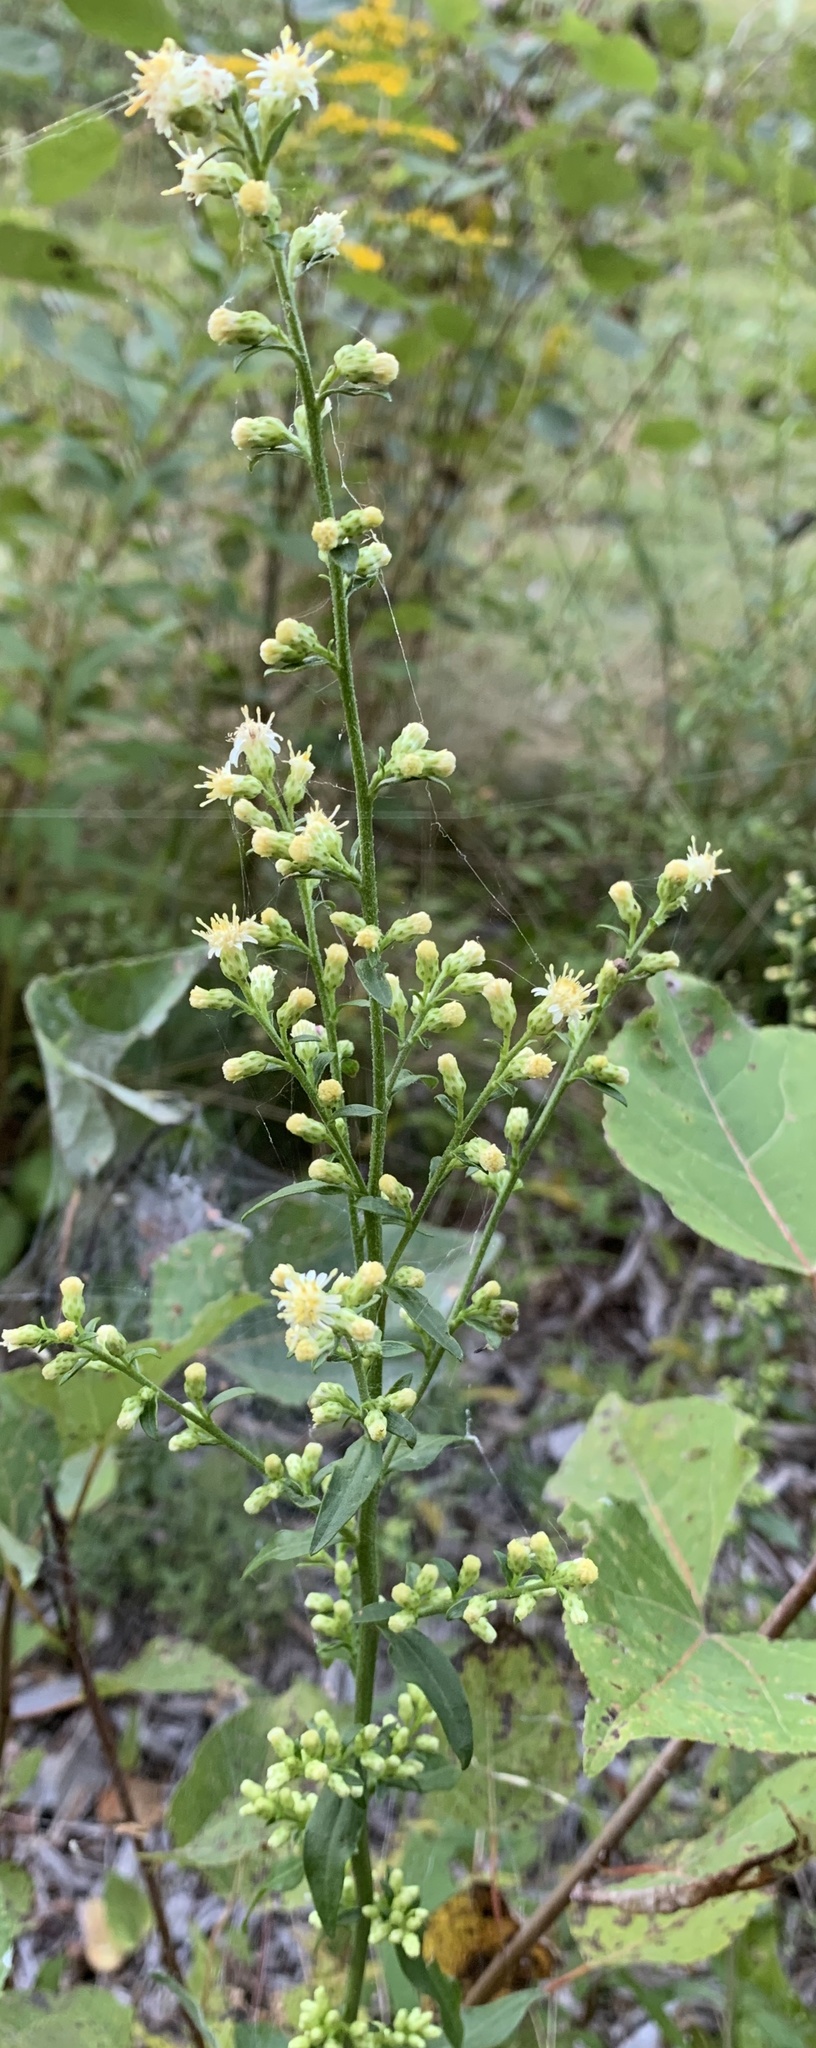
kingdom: Plantae
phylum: Tracheophyta
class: Magnoliopsida
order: Asterales
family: Asteraceae
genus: Solidago
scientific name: Solidago bicolor
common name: Silverrod
